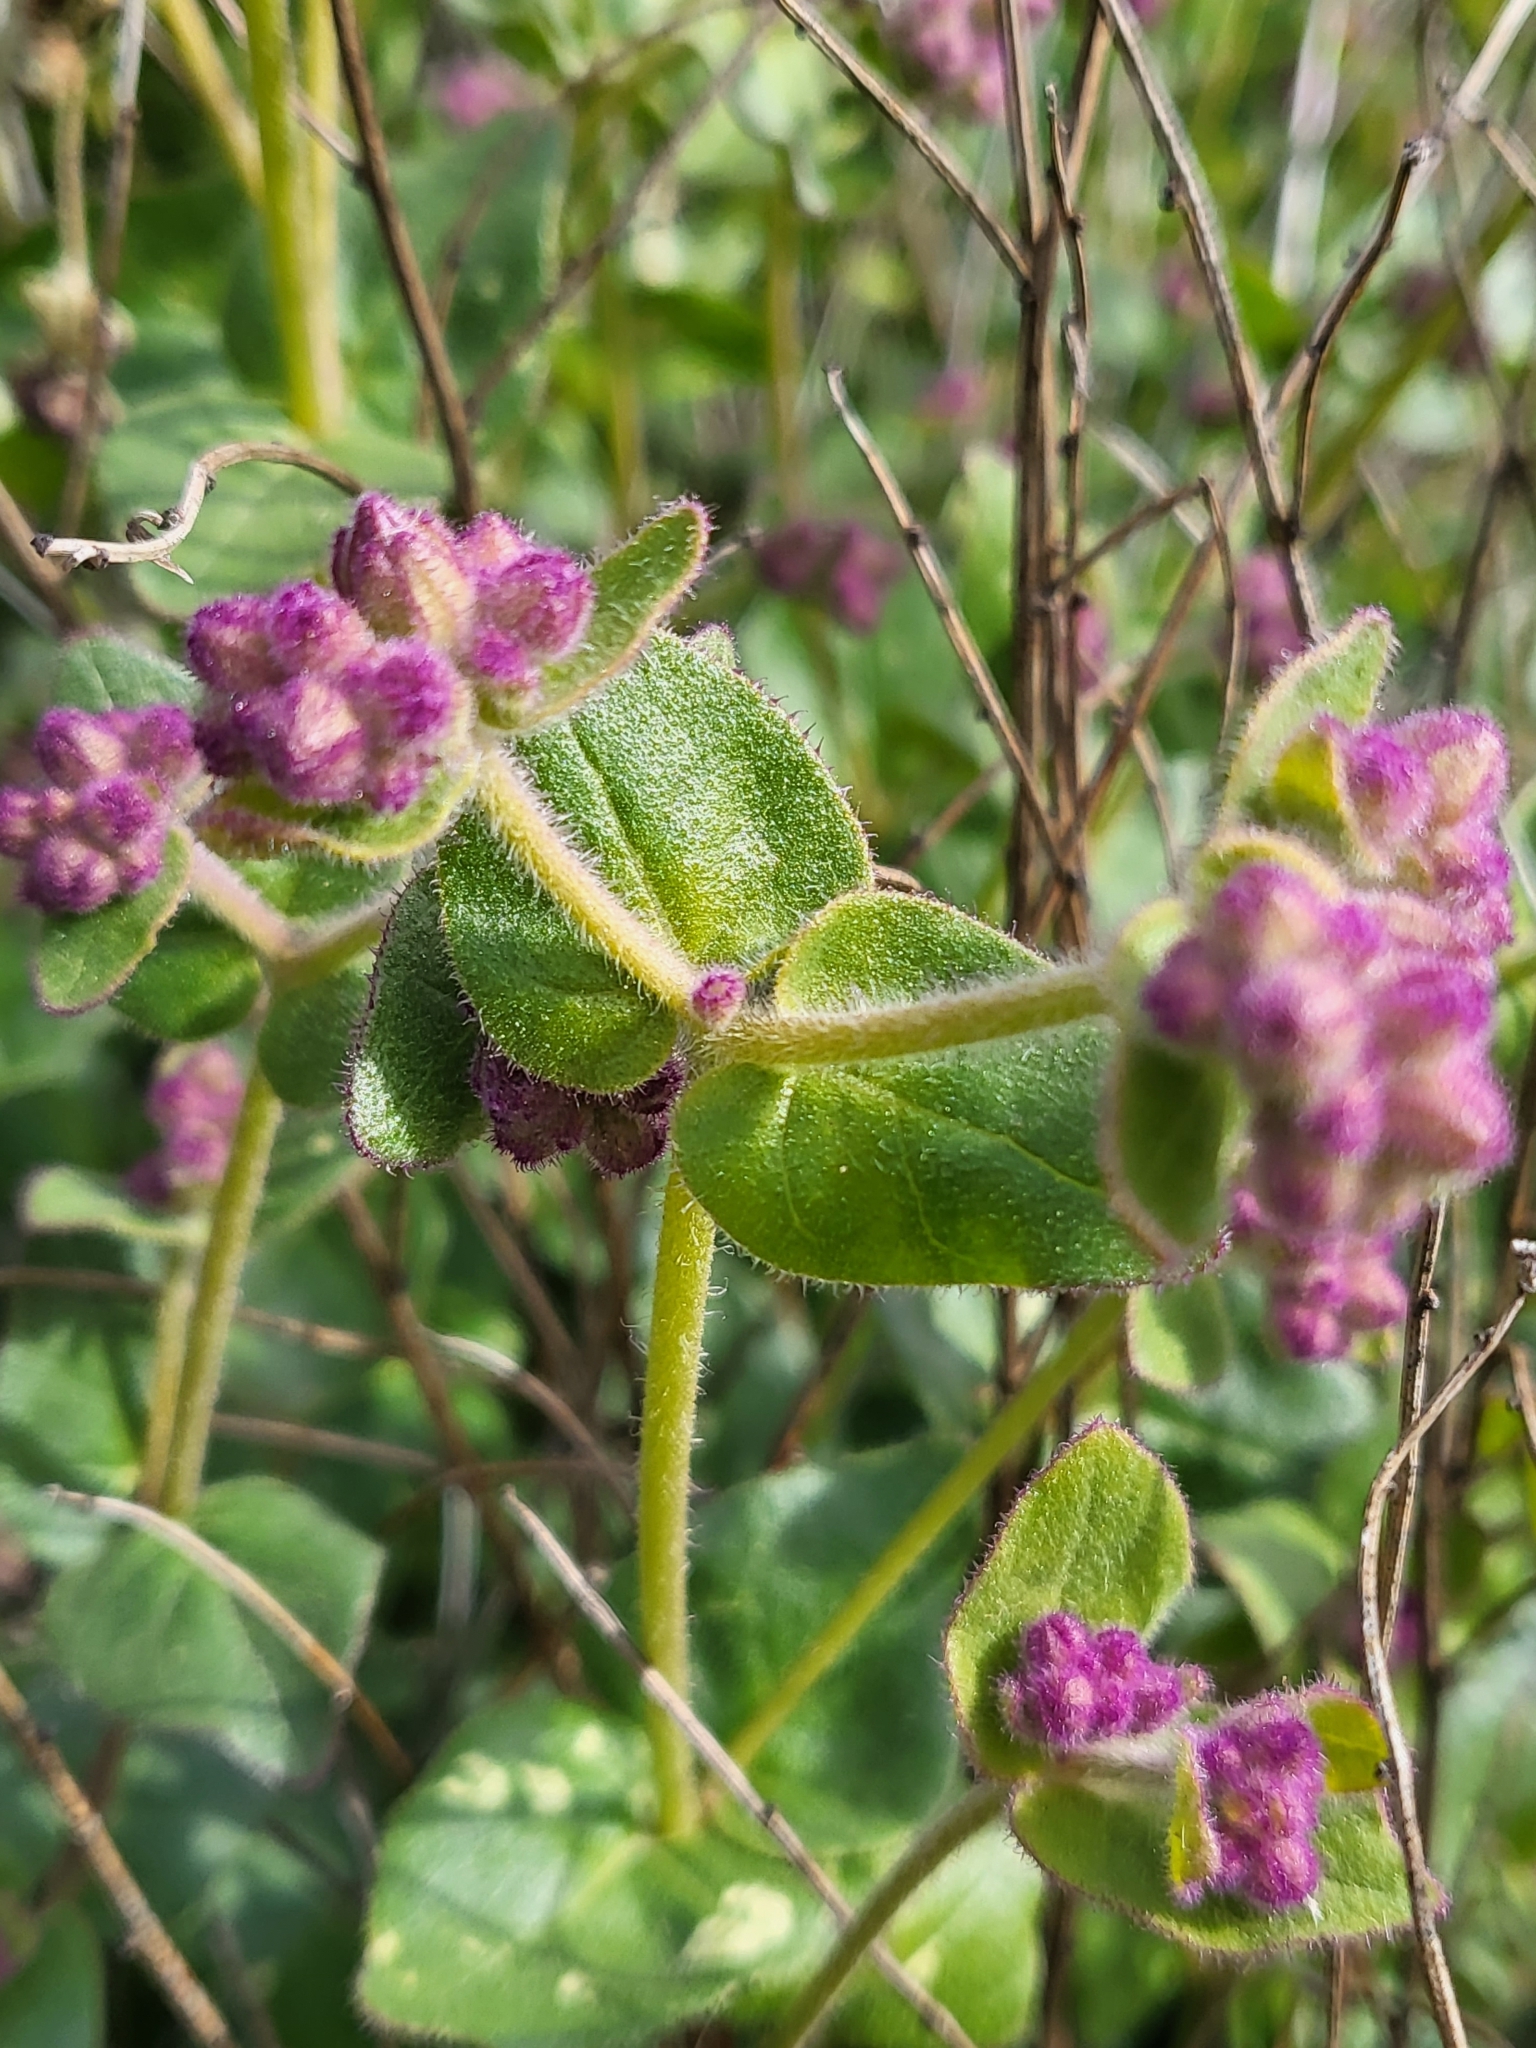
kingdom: Plantae
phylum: Tracheophyta
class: Magnoliopsida
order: Caryophyllales
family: Nyctaginaceae
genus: Mirabilis
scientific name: Mirabilis laevis
